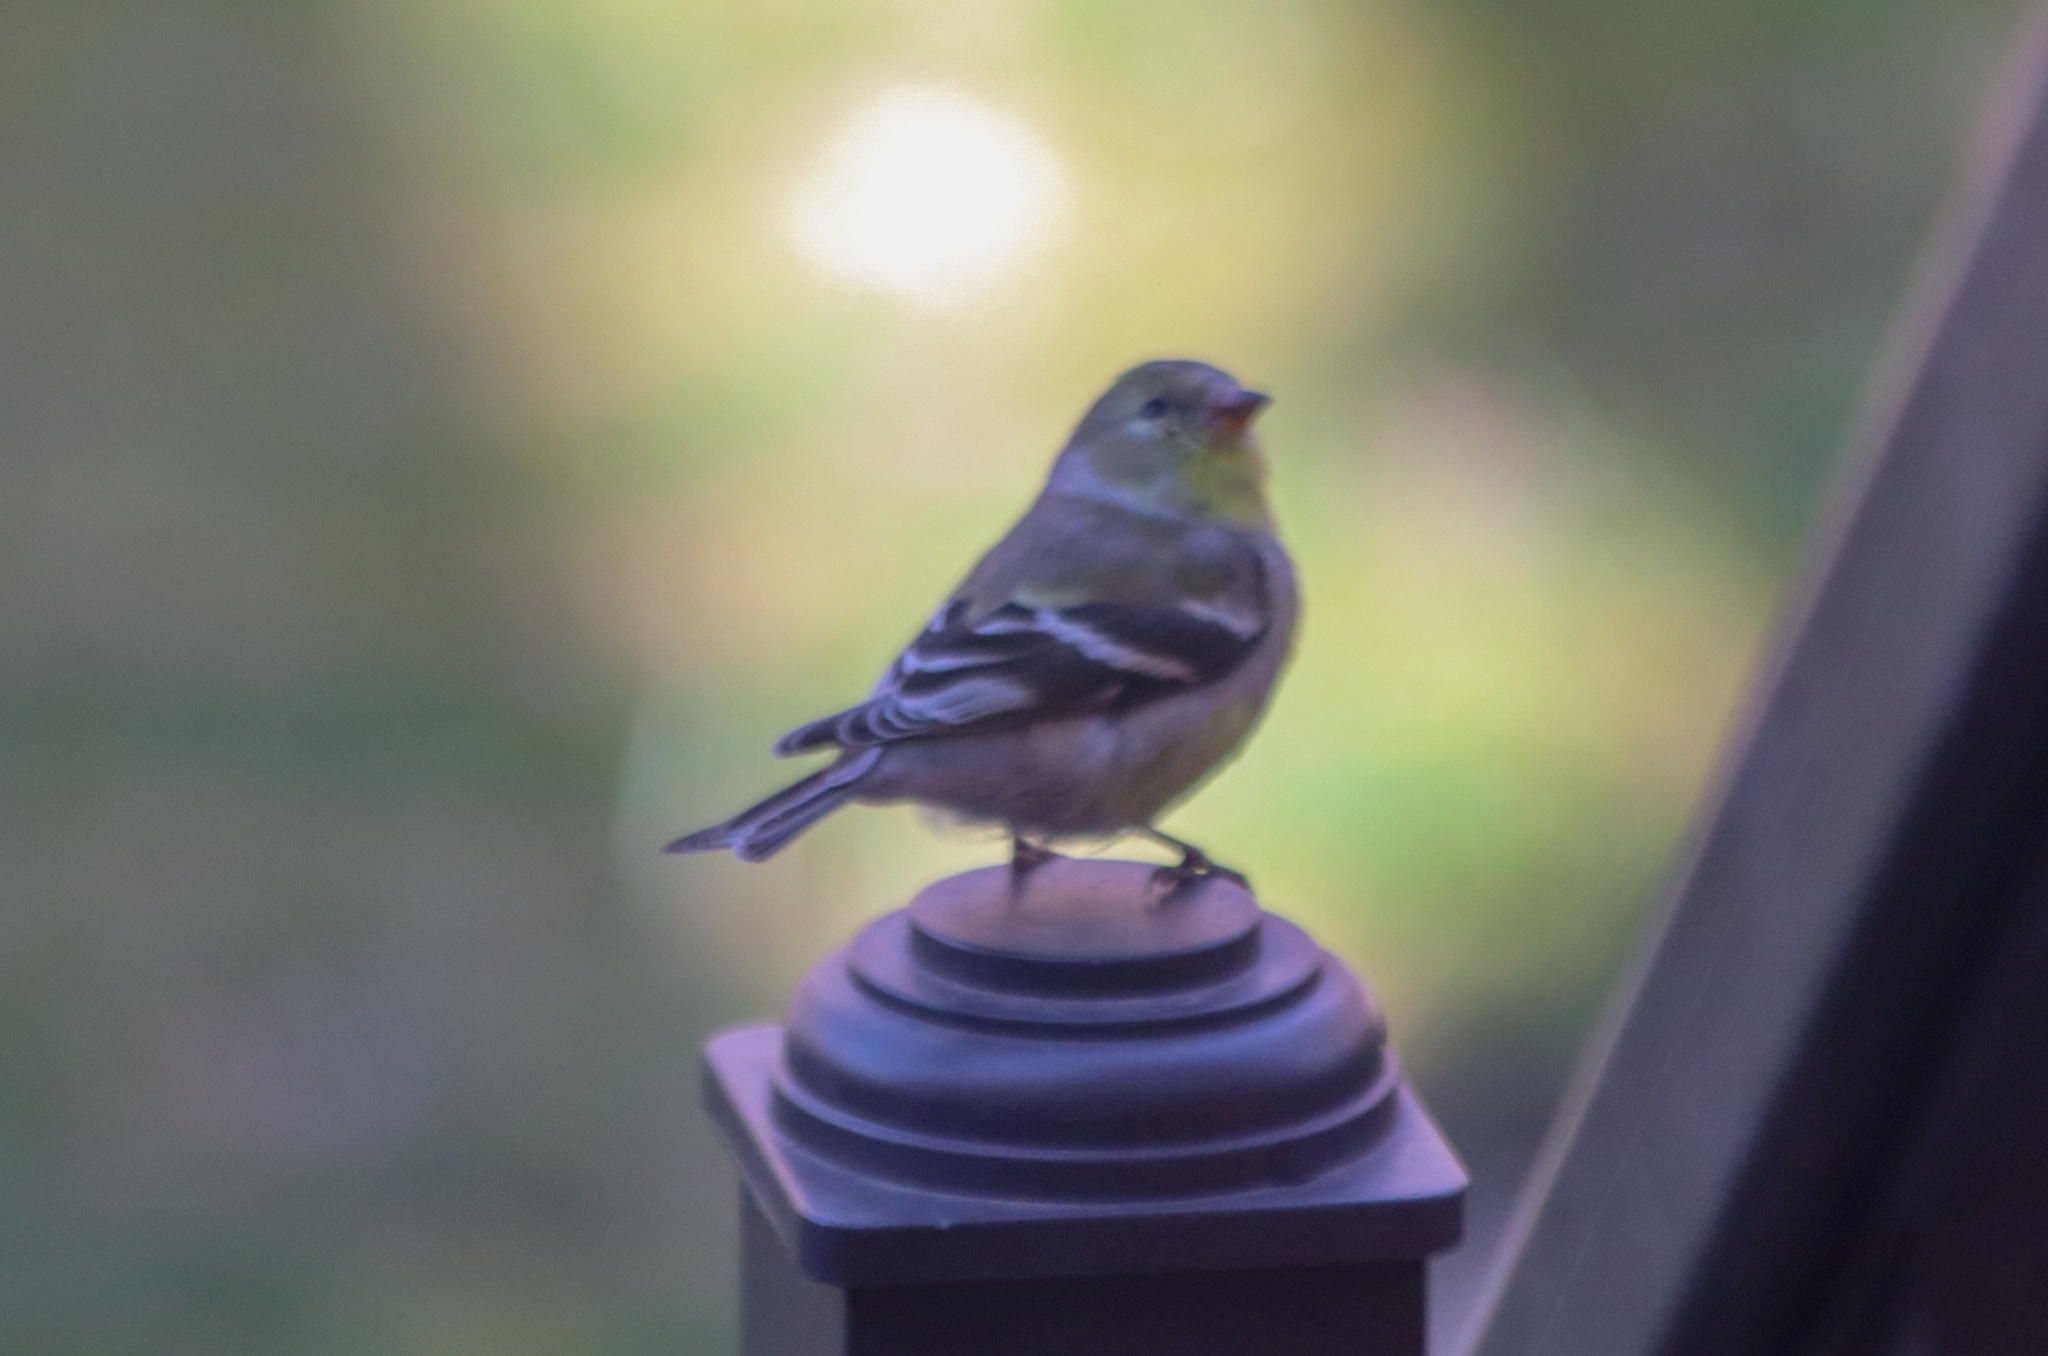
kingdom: Animalia
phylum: Chordata
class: Aves
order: Passeriformes
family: Fringillidae
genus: Spinus
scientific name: Spinus tristis
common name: American goldfinch
